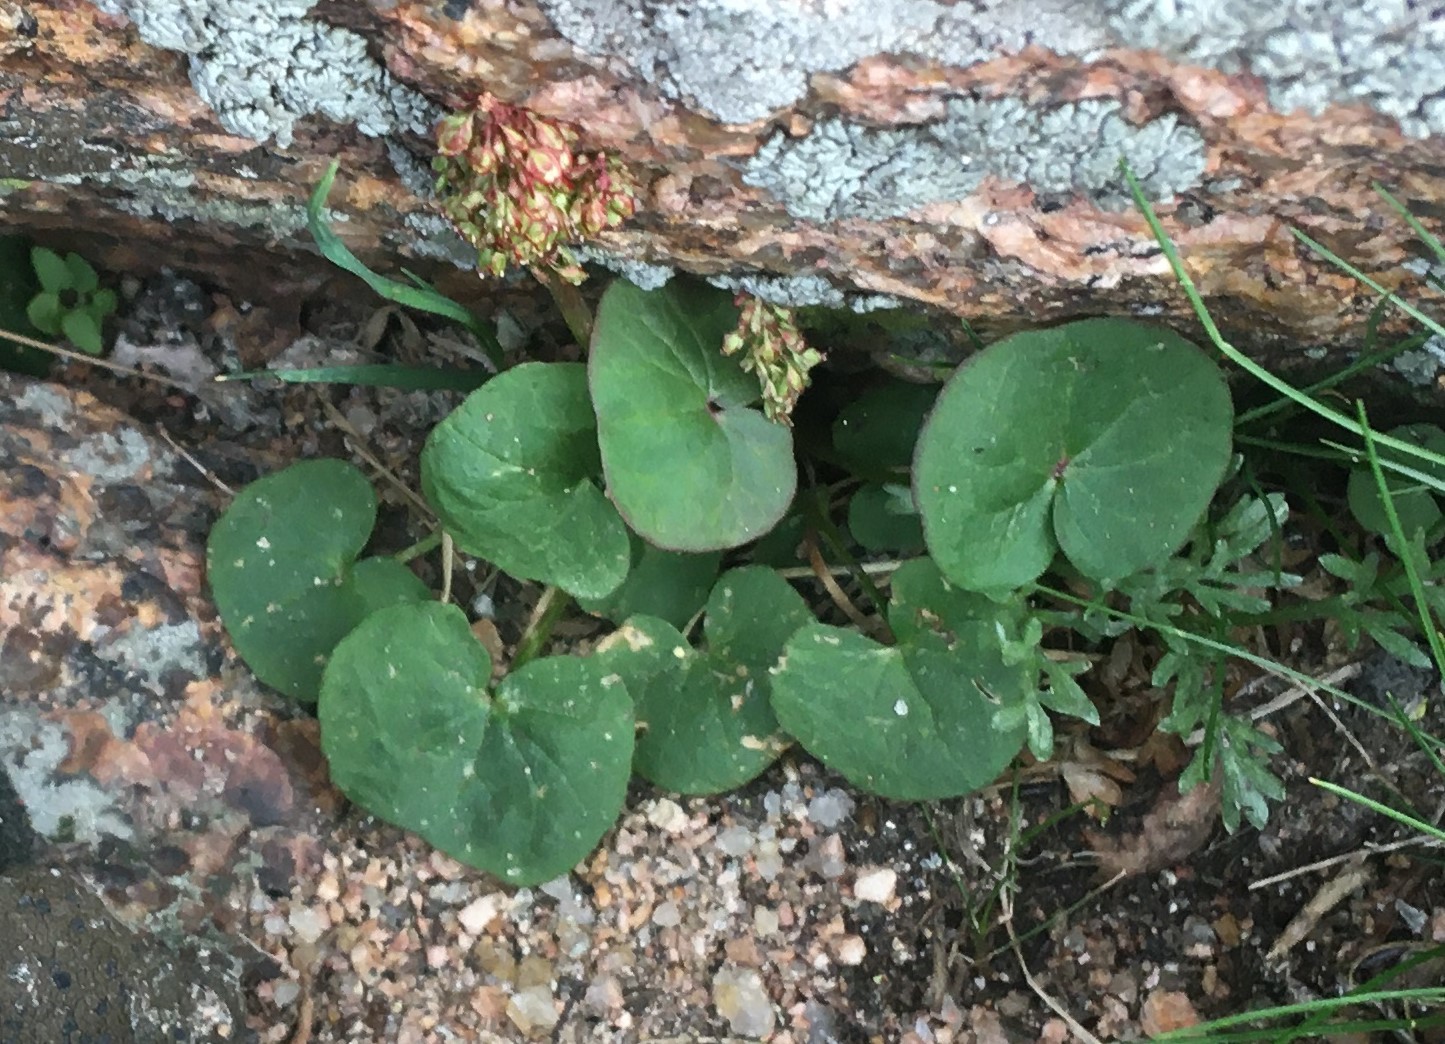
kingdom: Plantae
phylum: Tracheophyta
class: Magnoliopsida
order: Caryophyllales
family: Polygonaceae
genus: Oxyria
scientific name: Oxyria digyna
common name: Alpine mountain-sorrel
